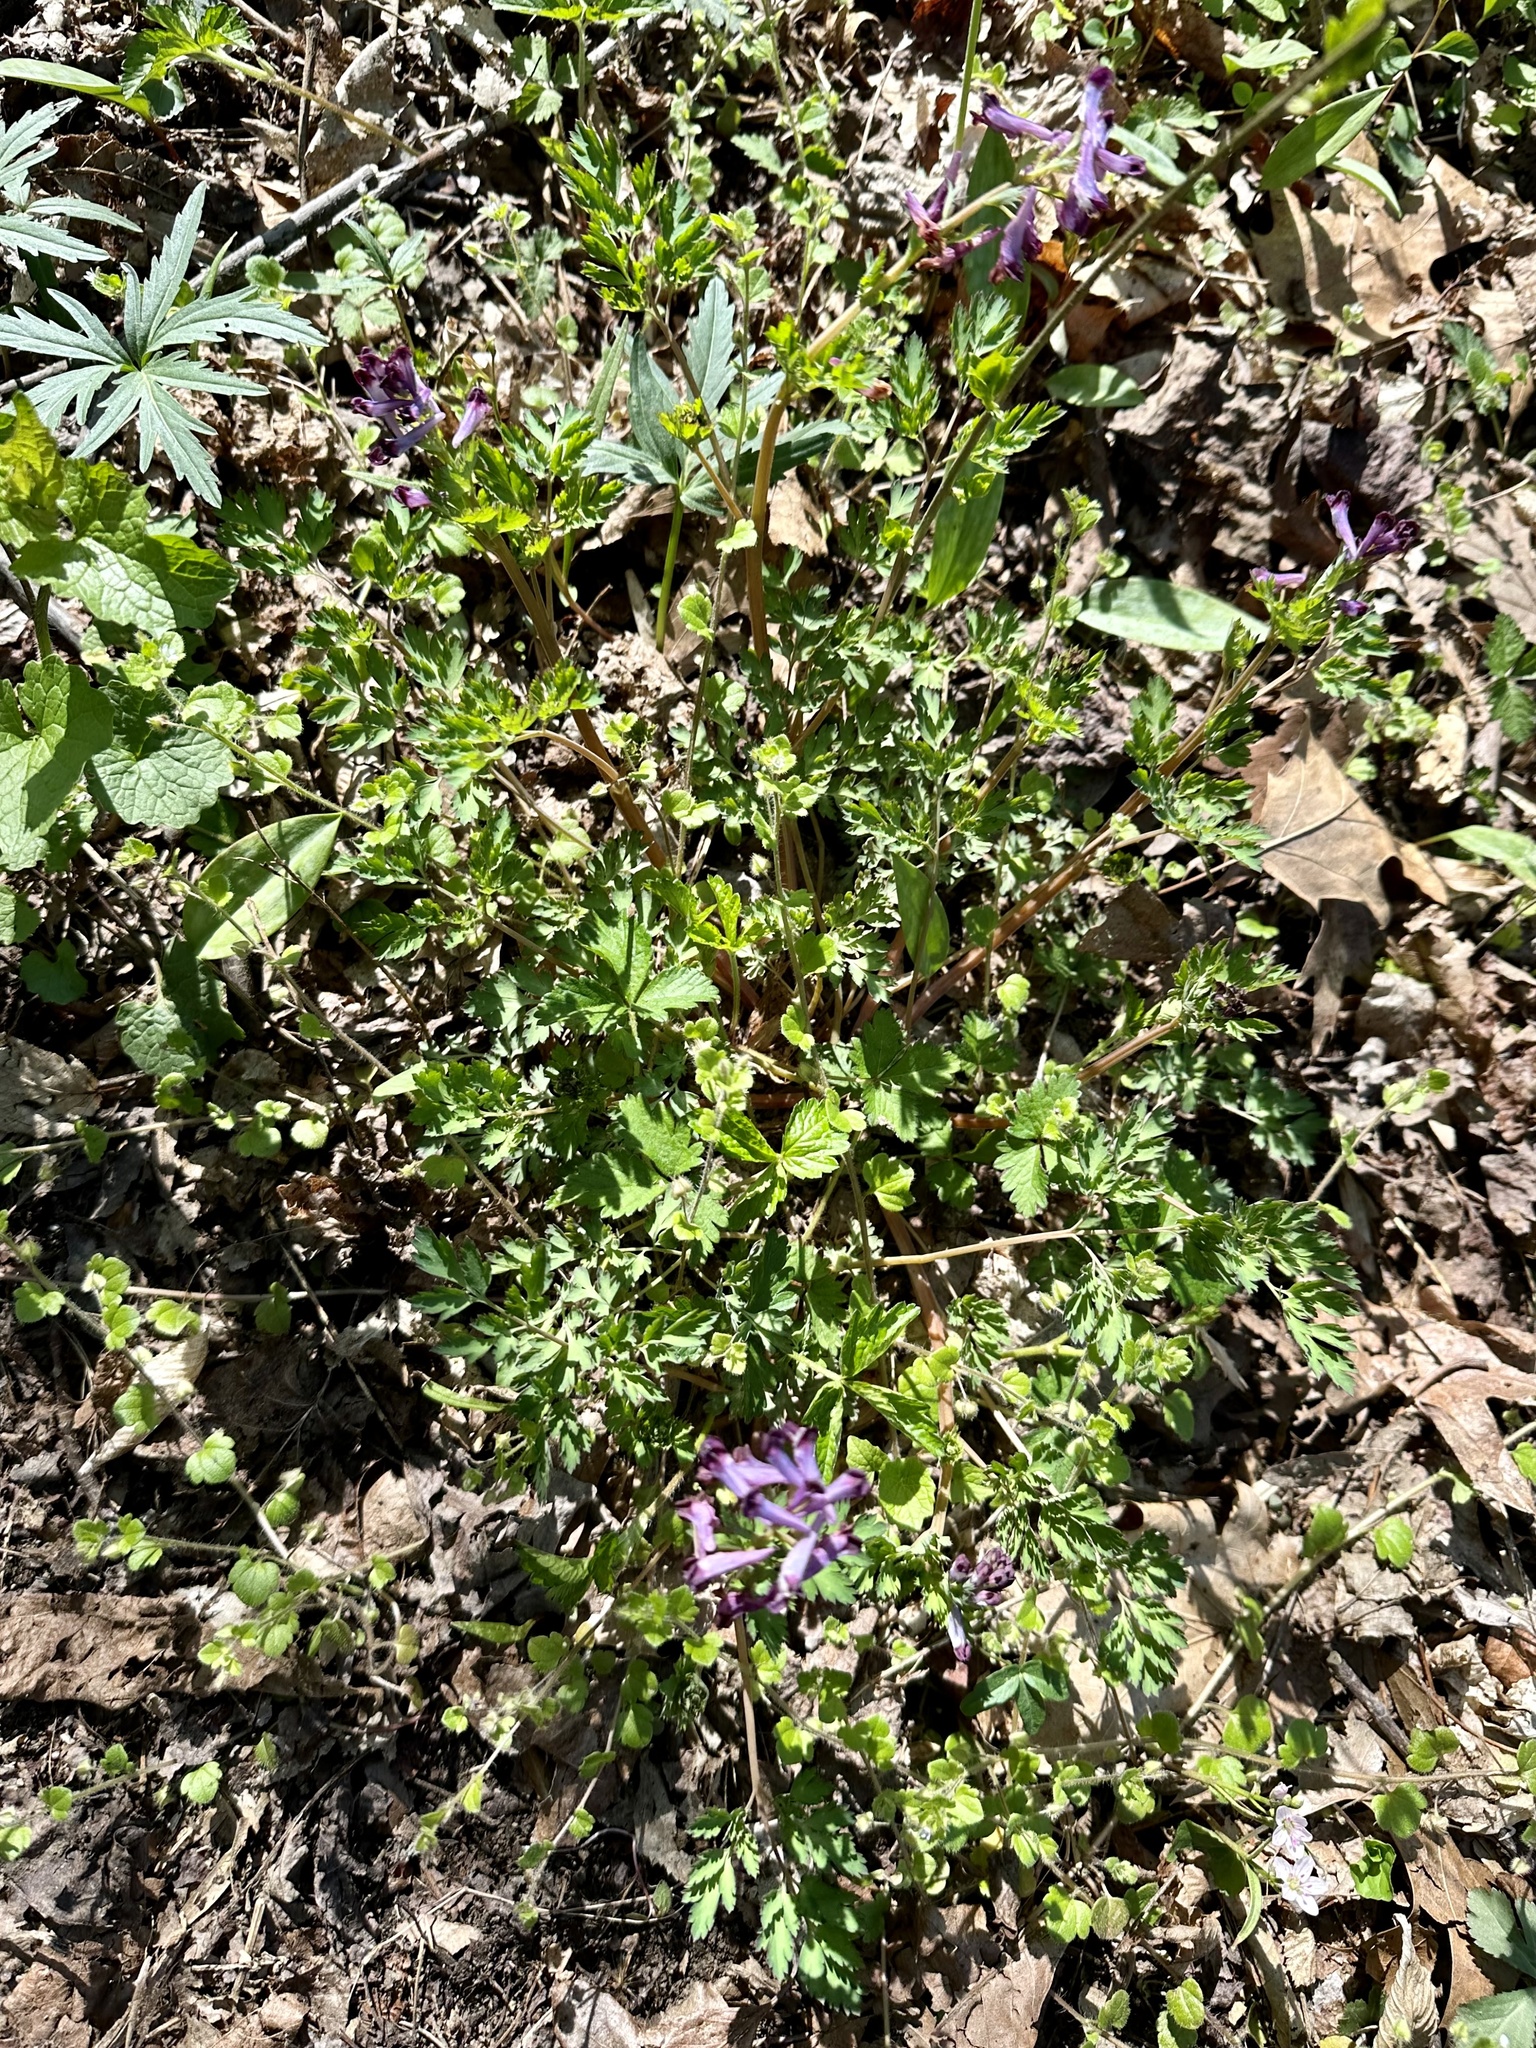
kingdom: Plantae
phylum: Tracheophyta
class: Magnoliopsida
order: Ranunculales
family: Papaveraceae
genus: Corydalis
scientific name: Corydalis incisa
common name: Incised fumewort
